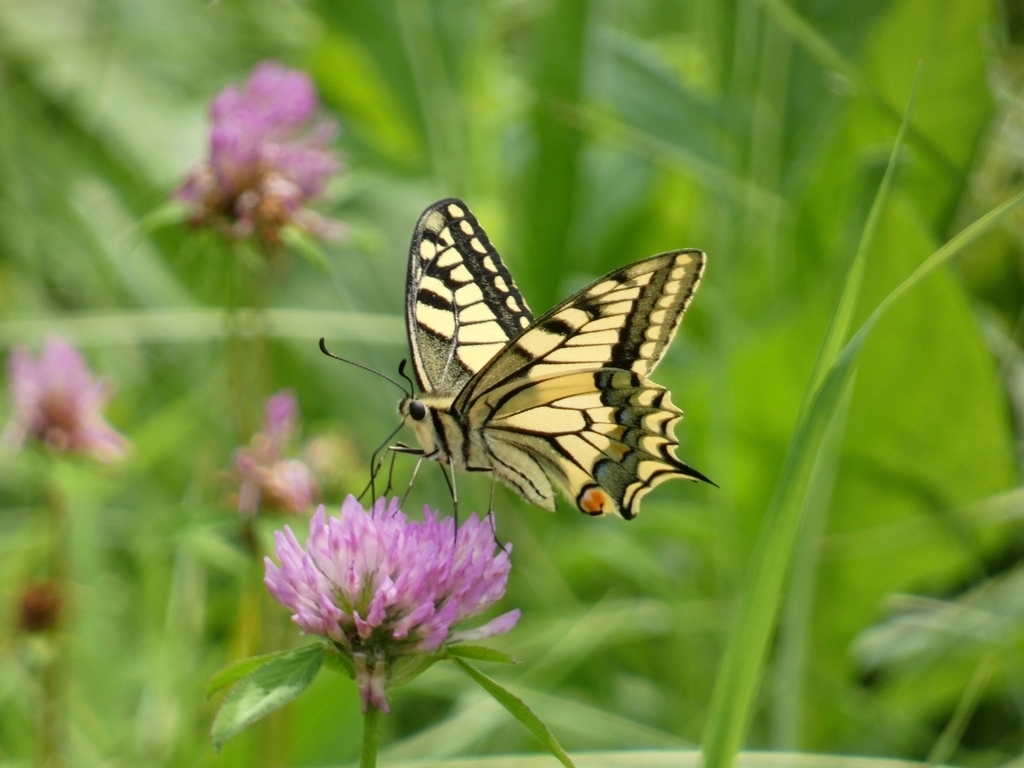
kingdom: Animalia
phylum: Arthropoda
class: Insecta
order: Lepidoptera
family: Papilionidae
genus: Papilio
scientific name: Papilio machaon
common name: Swallowtail
